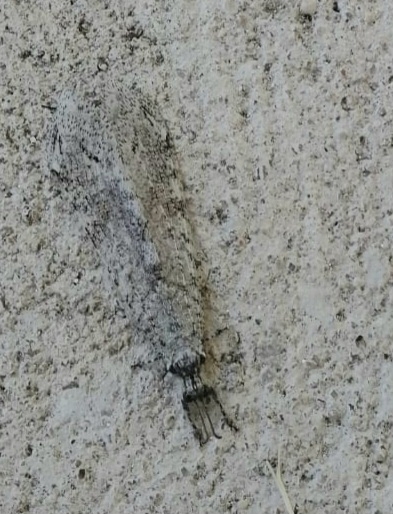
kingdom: Animalia
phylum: Arthropoda
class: Insecta
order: Neuroptera
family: Myrmeleontidae
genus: Vella
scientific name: Vella fallax
